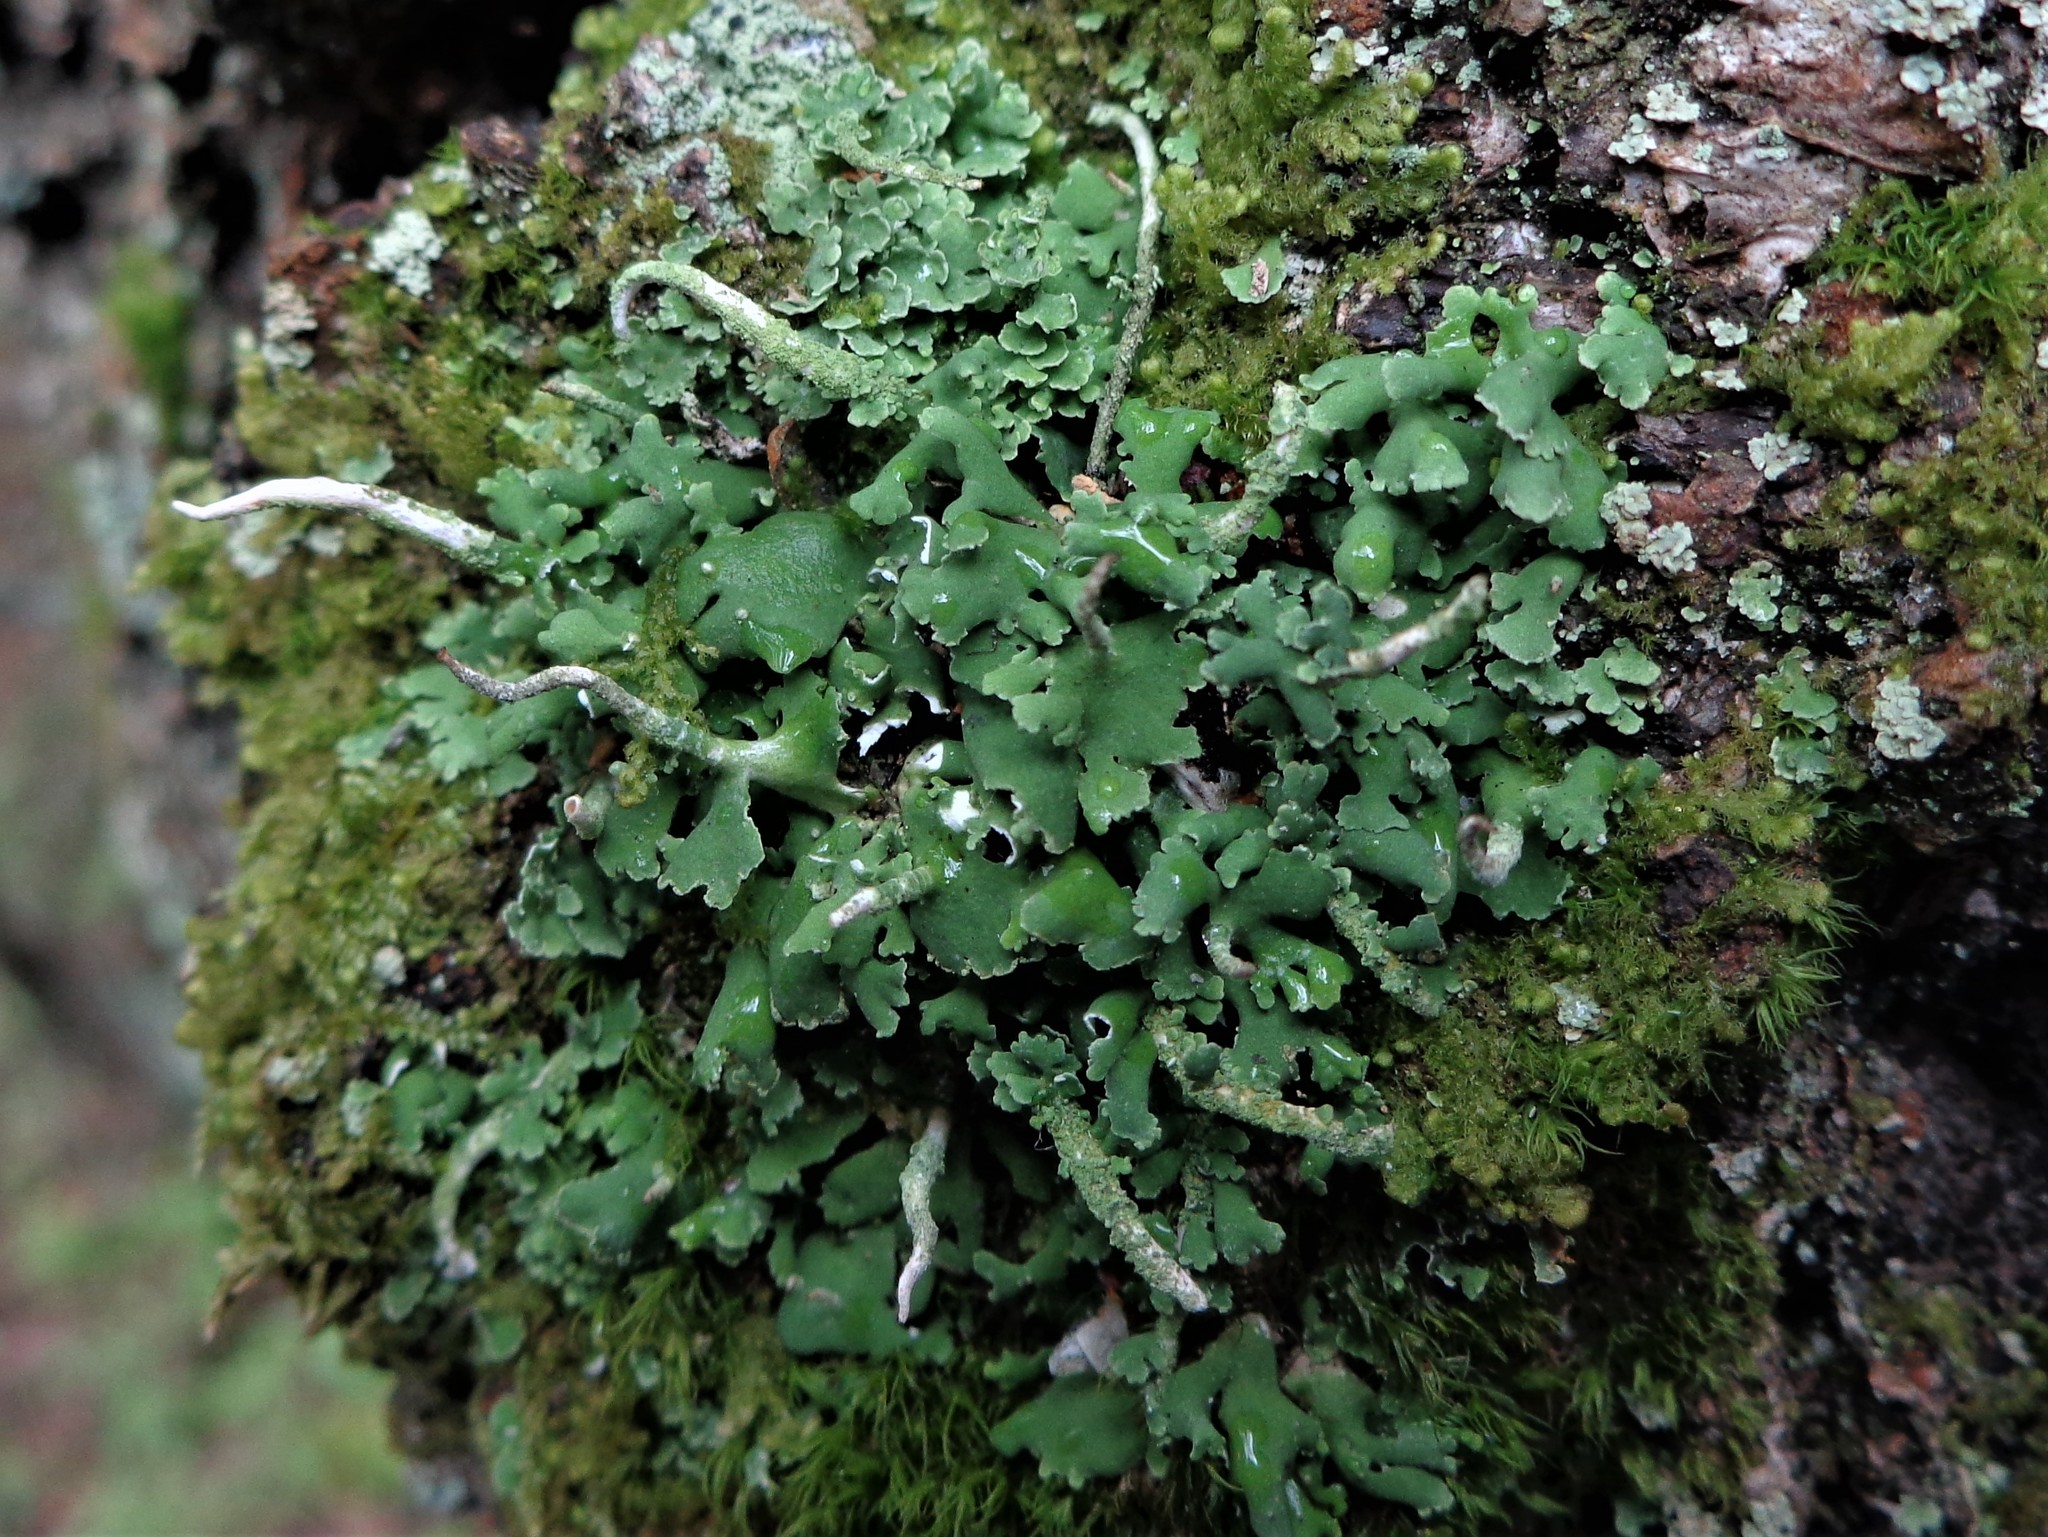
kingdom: Fungi
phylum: Ascomycota
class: Lecanoromycetes
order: Lecanorales
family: Cladoniaceae
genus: Cladonia
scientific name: Cladonia coniocraea
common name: Common powderhorn
